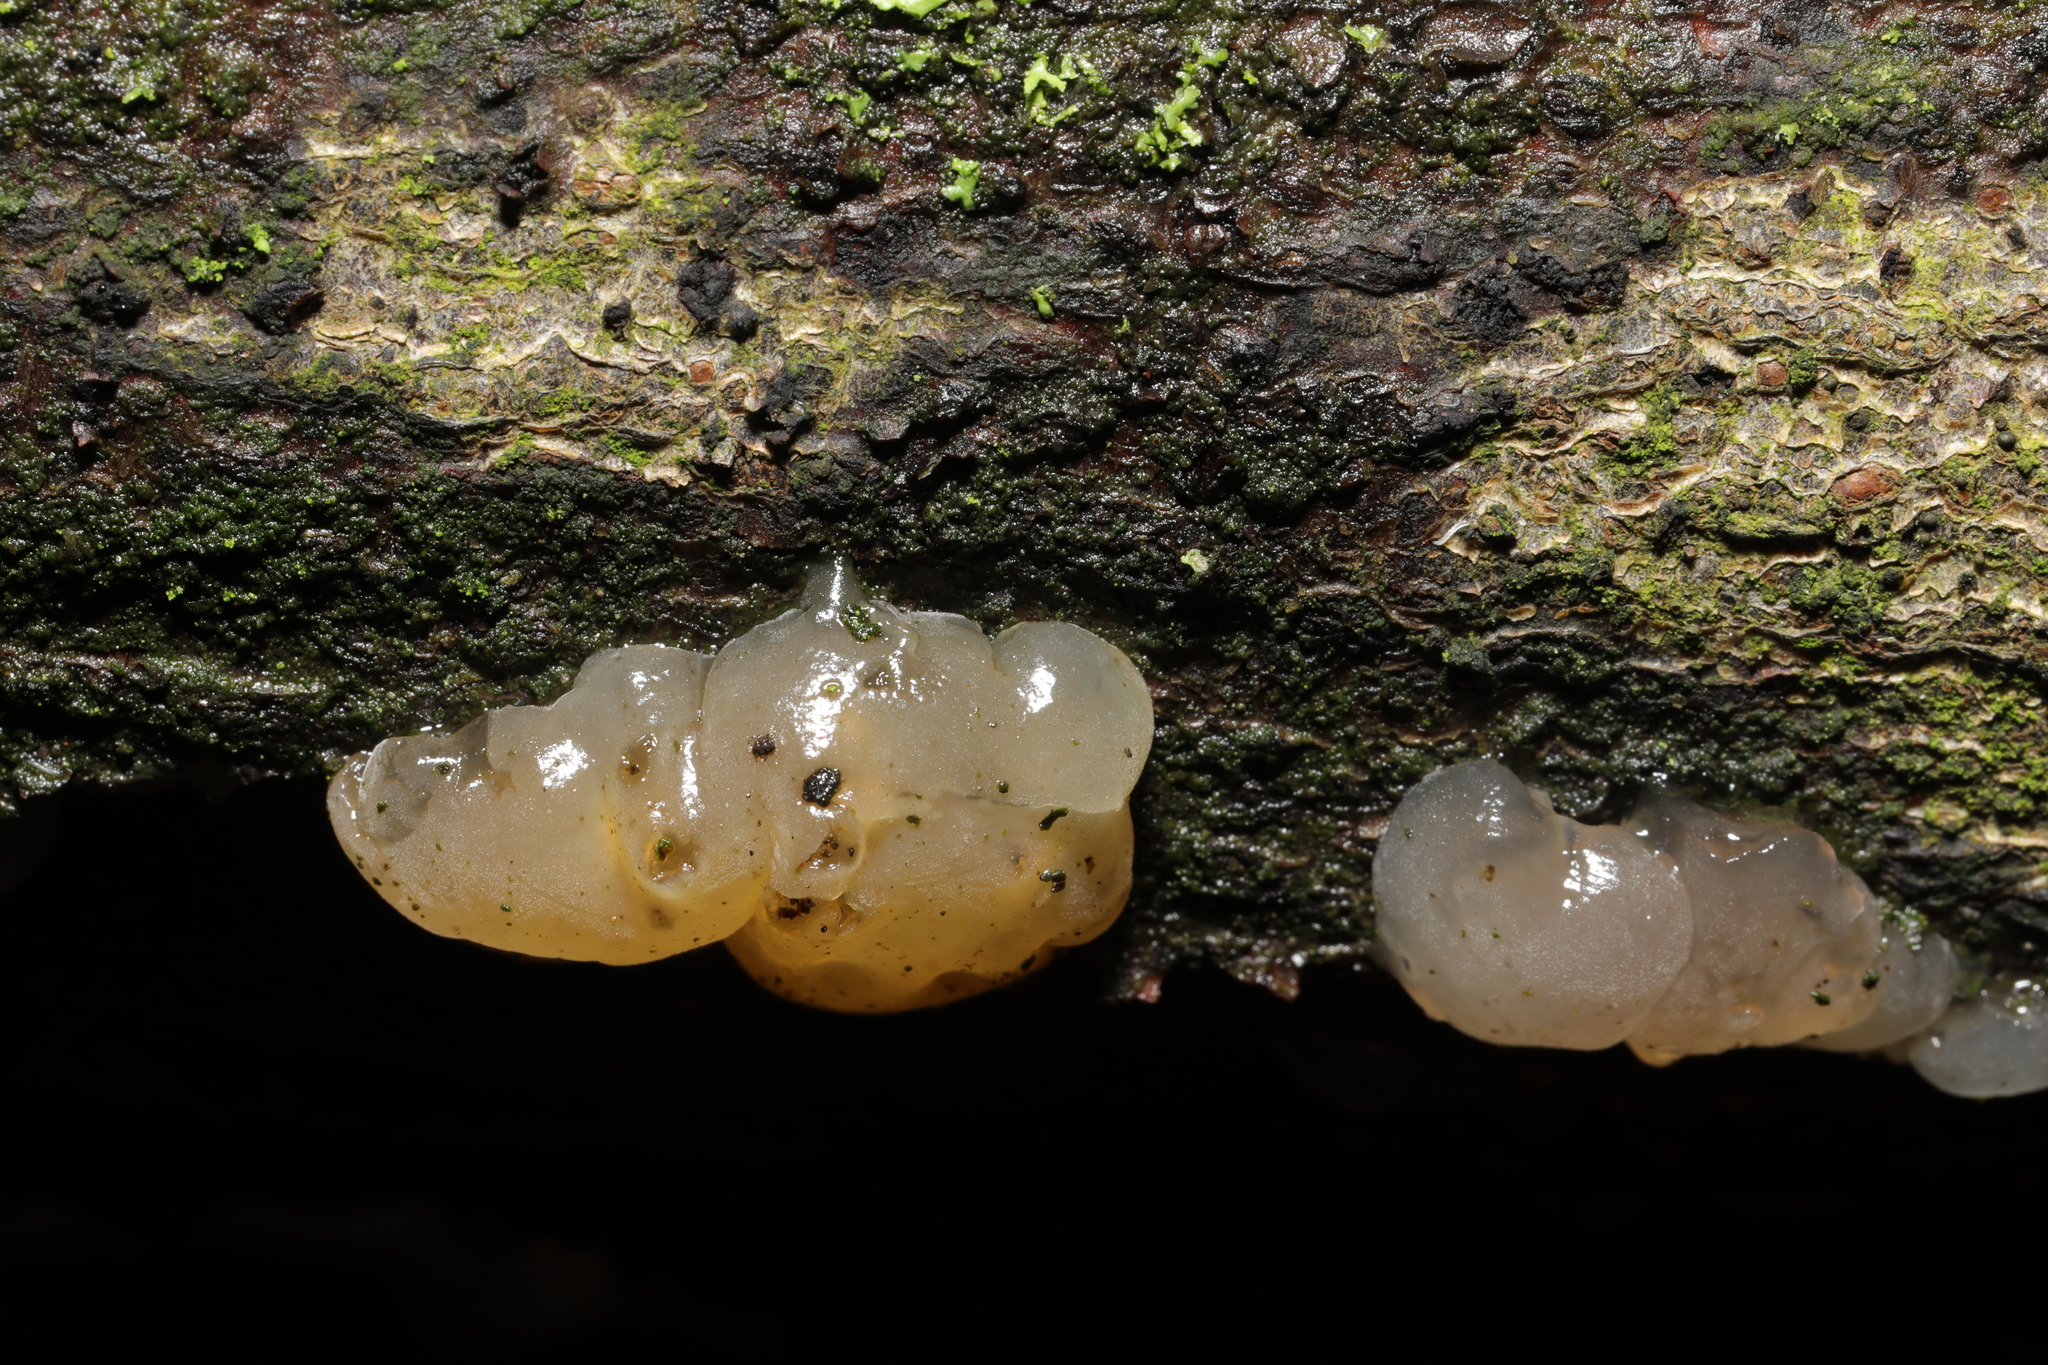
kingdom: Fungi
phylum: Basidiomycota
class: Agaricomycetes
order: Auriculariales
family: Hyaloriaceae
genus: Myxarium
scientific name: Myxarium nucleatum
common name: Crystal brain fungus
